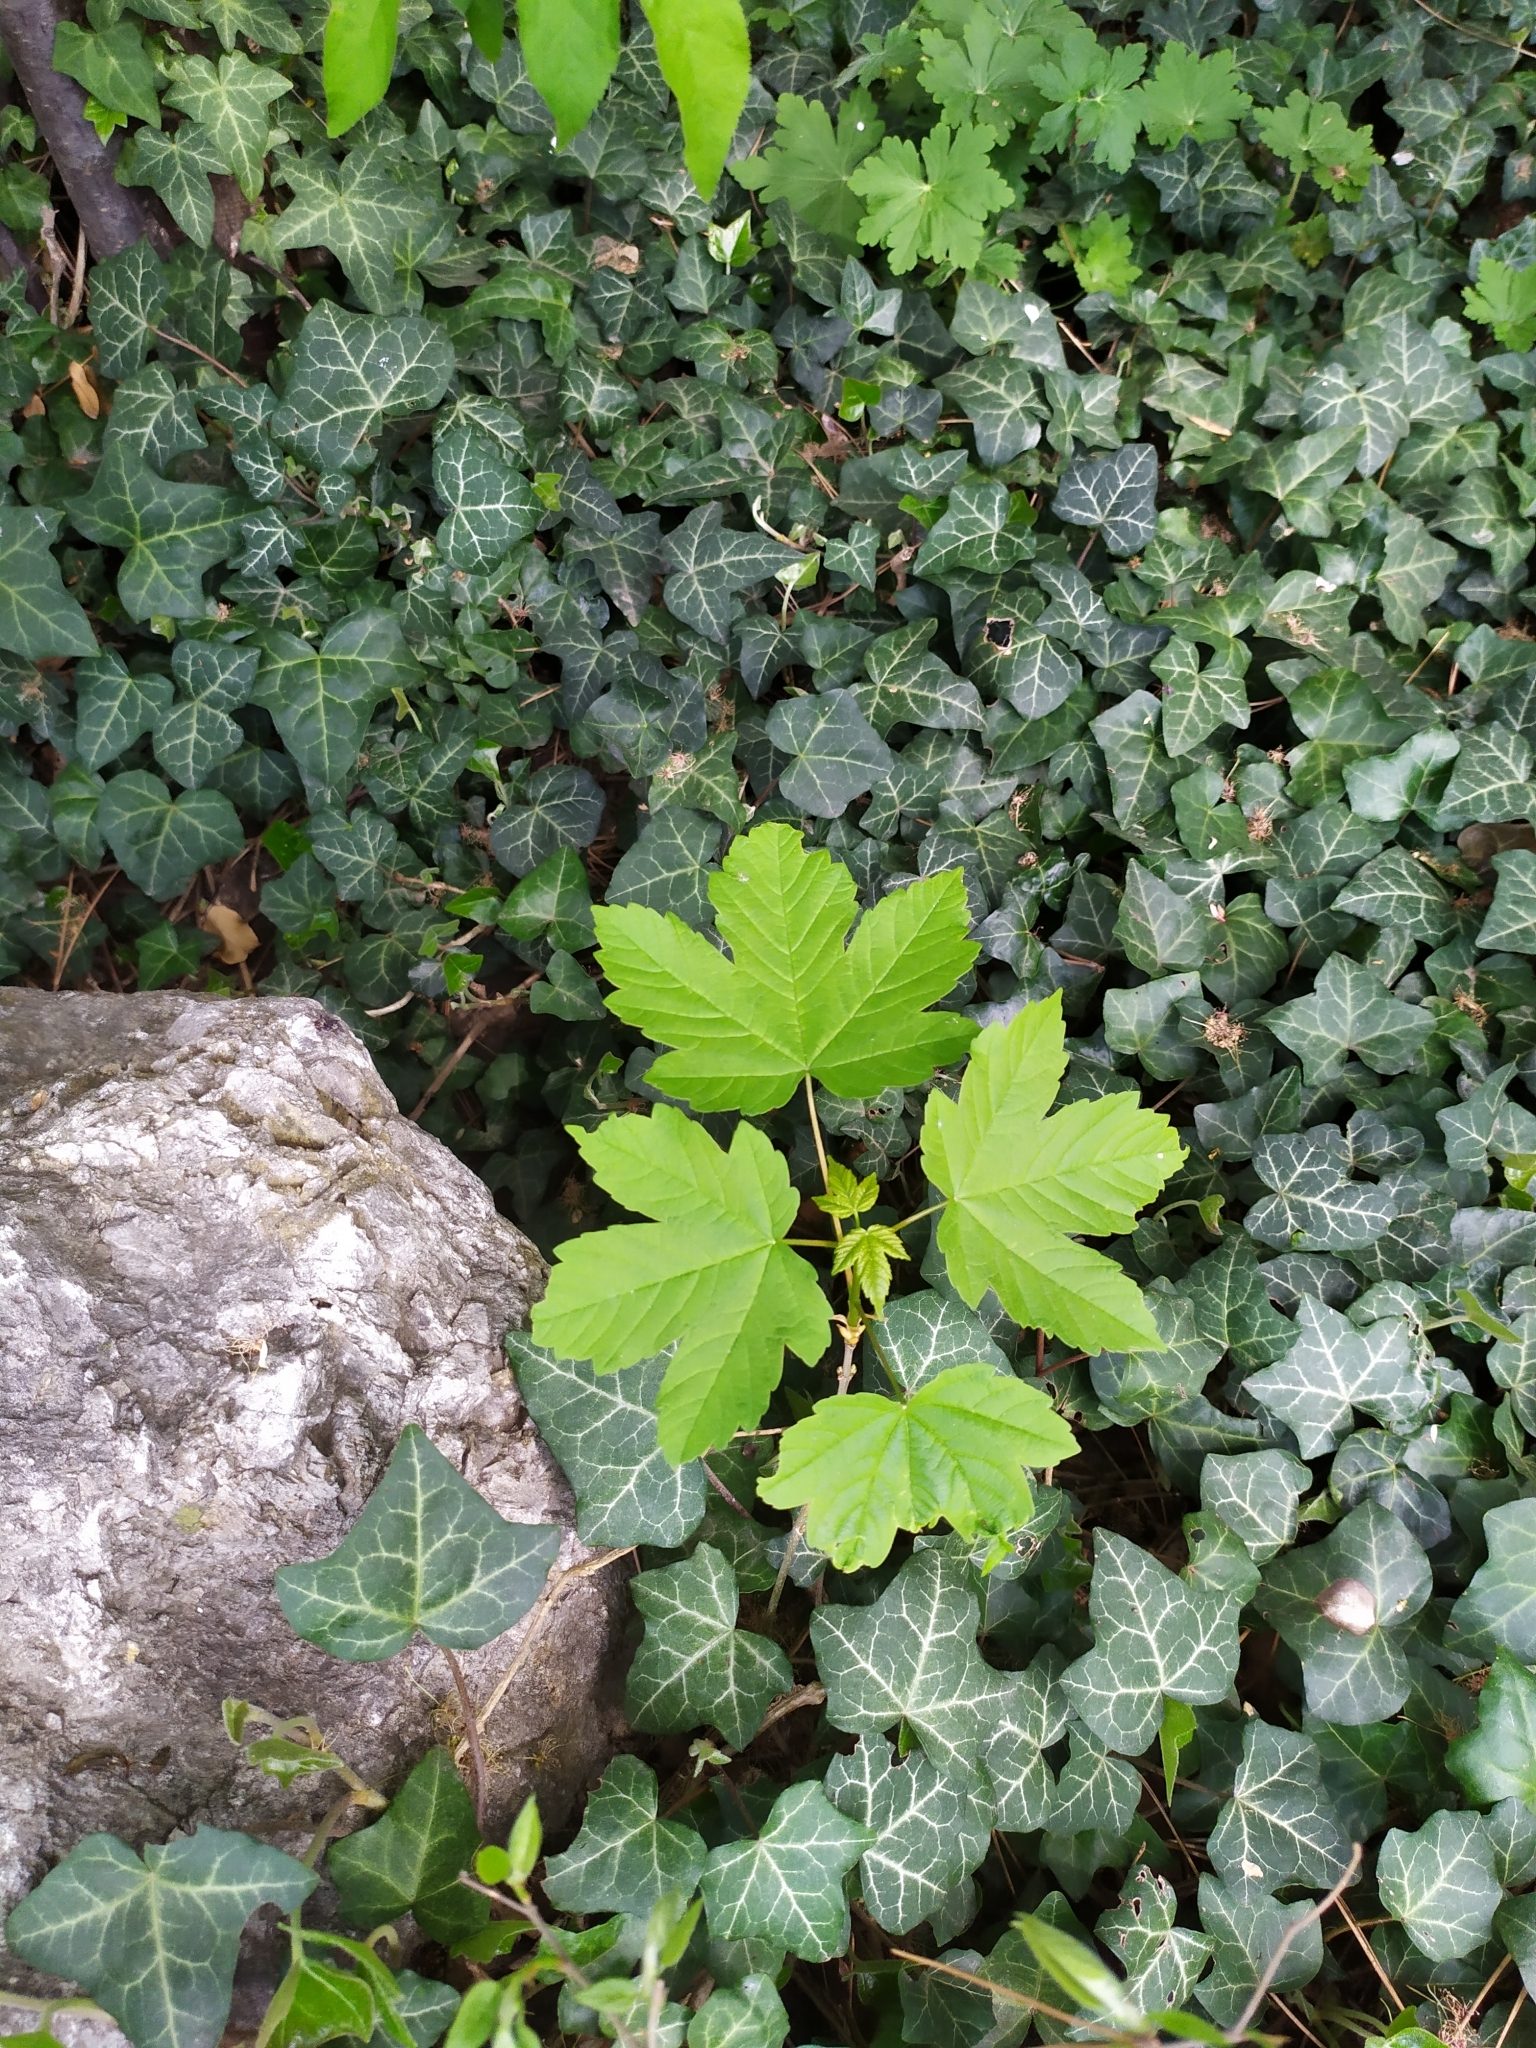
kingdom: Plantae
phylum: Tracheophyta
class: Magnoliopsida
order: Sapindales
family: Sapindaceae
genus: Acer
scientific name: Acer pseudoplatanus
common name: Sycamore
